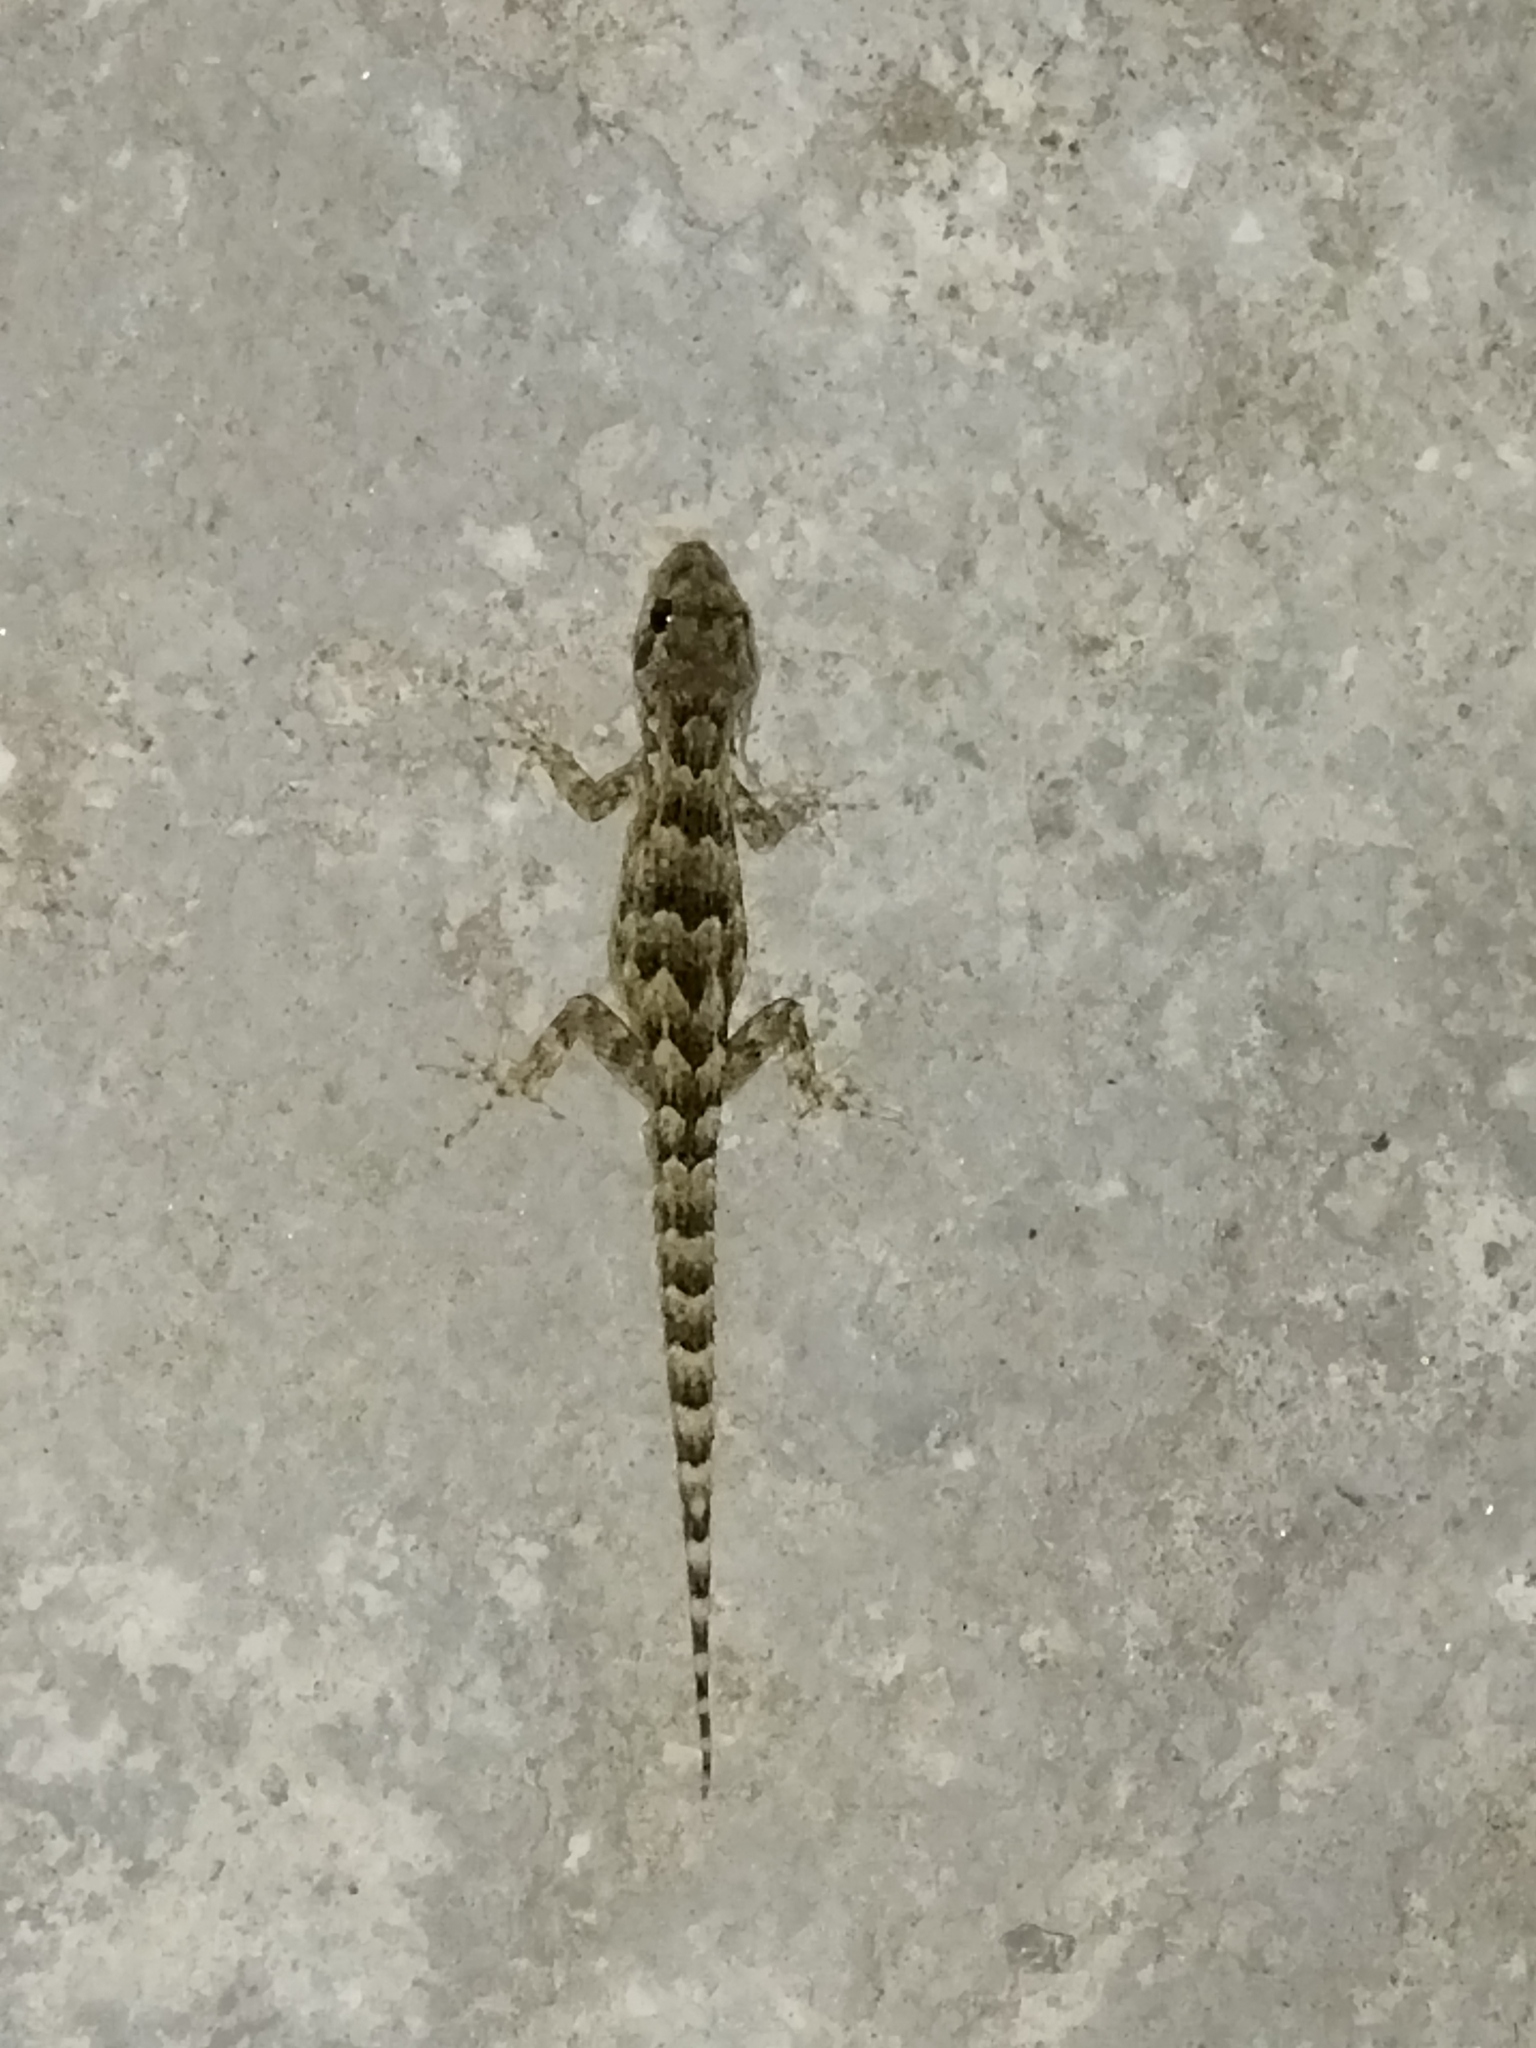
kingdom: Animalia
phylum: Chordata
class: Squamata
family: Gekkonidae
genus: Mediodactylus
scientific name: Mediodactylus kotschyi
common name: Kotschy's gecko
